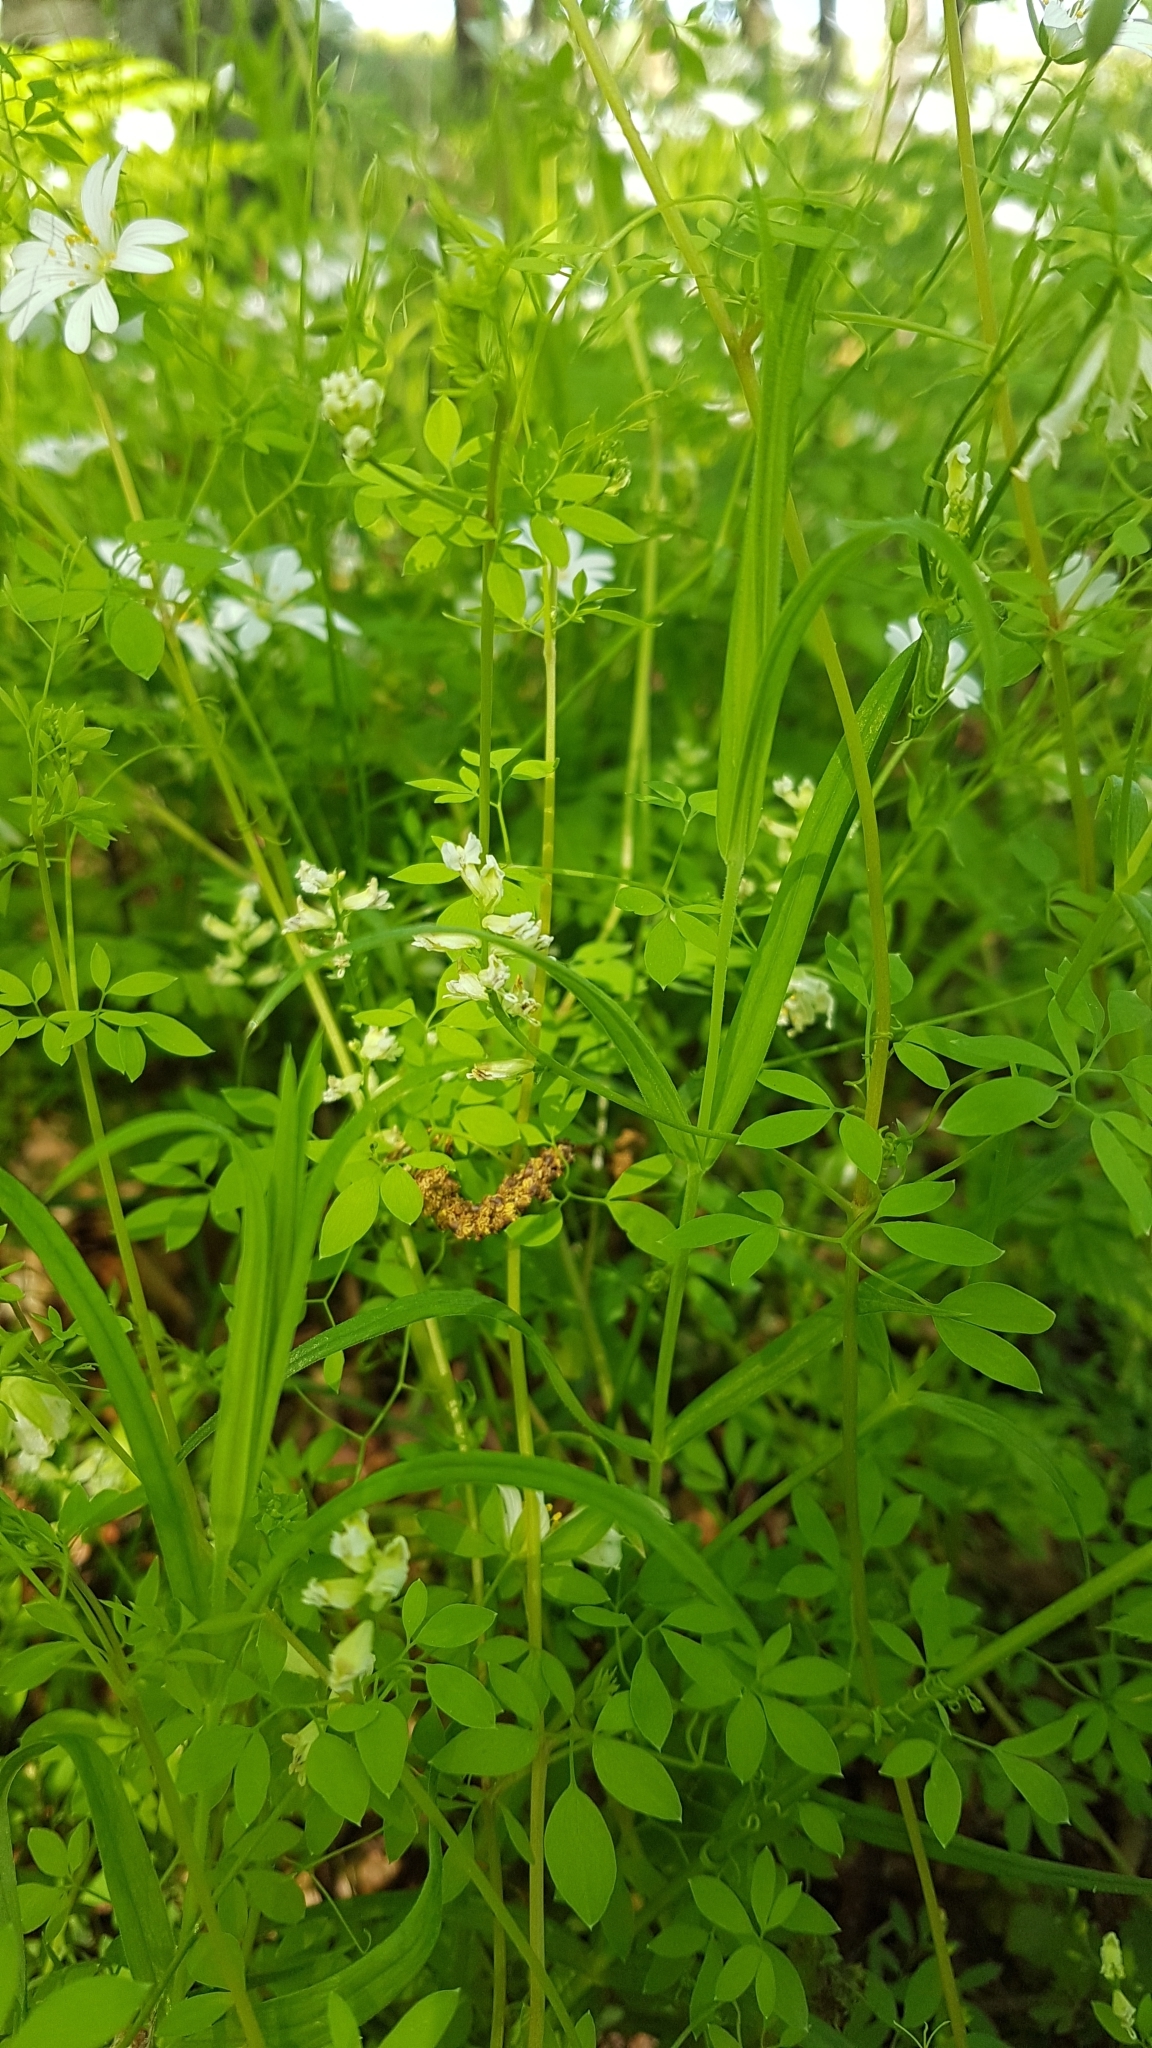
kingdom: Plantae
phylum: Tracheophyta
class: Magnoliopsida
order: Ranunculales
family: Papaveraceae
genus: Ceratocapnos
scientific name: Ceratocapnos claviculata
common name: Climbing corydalis
